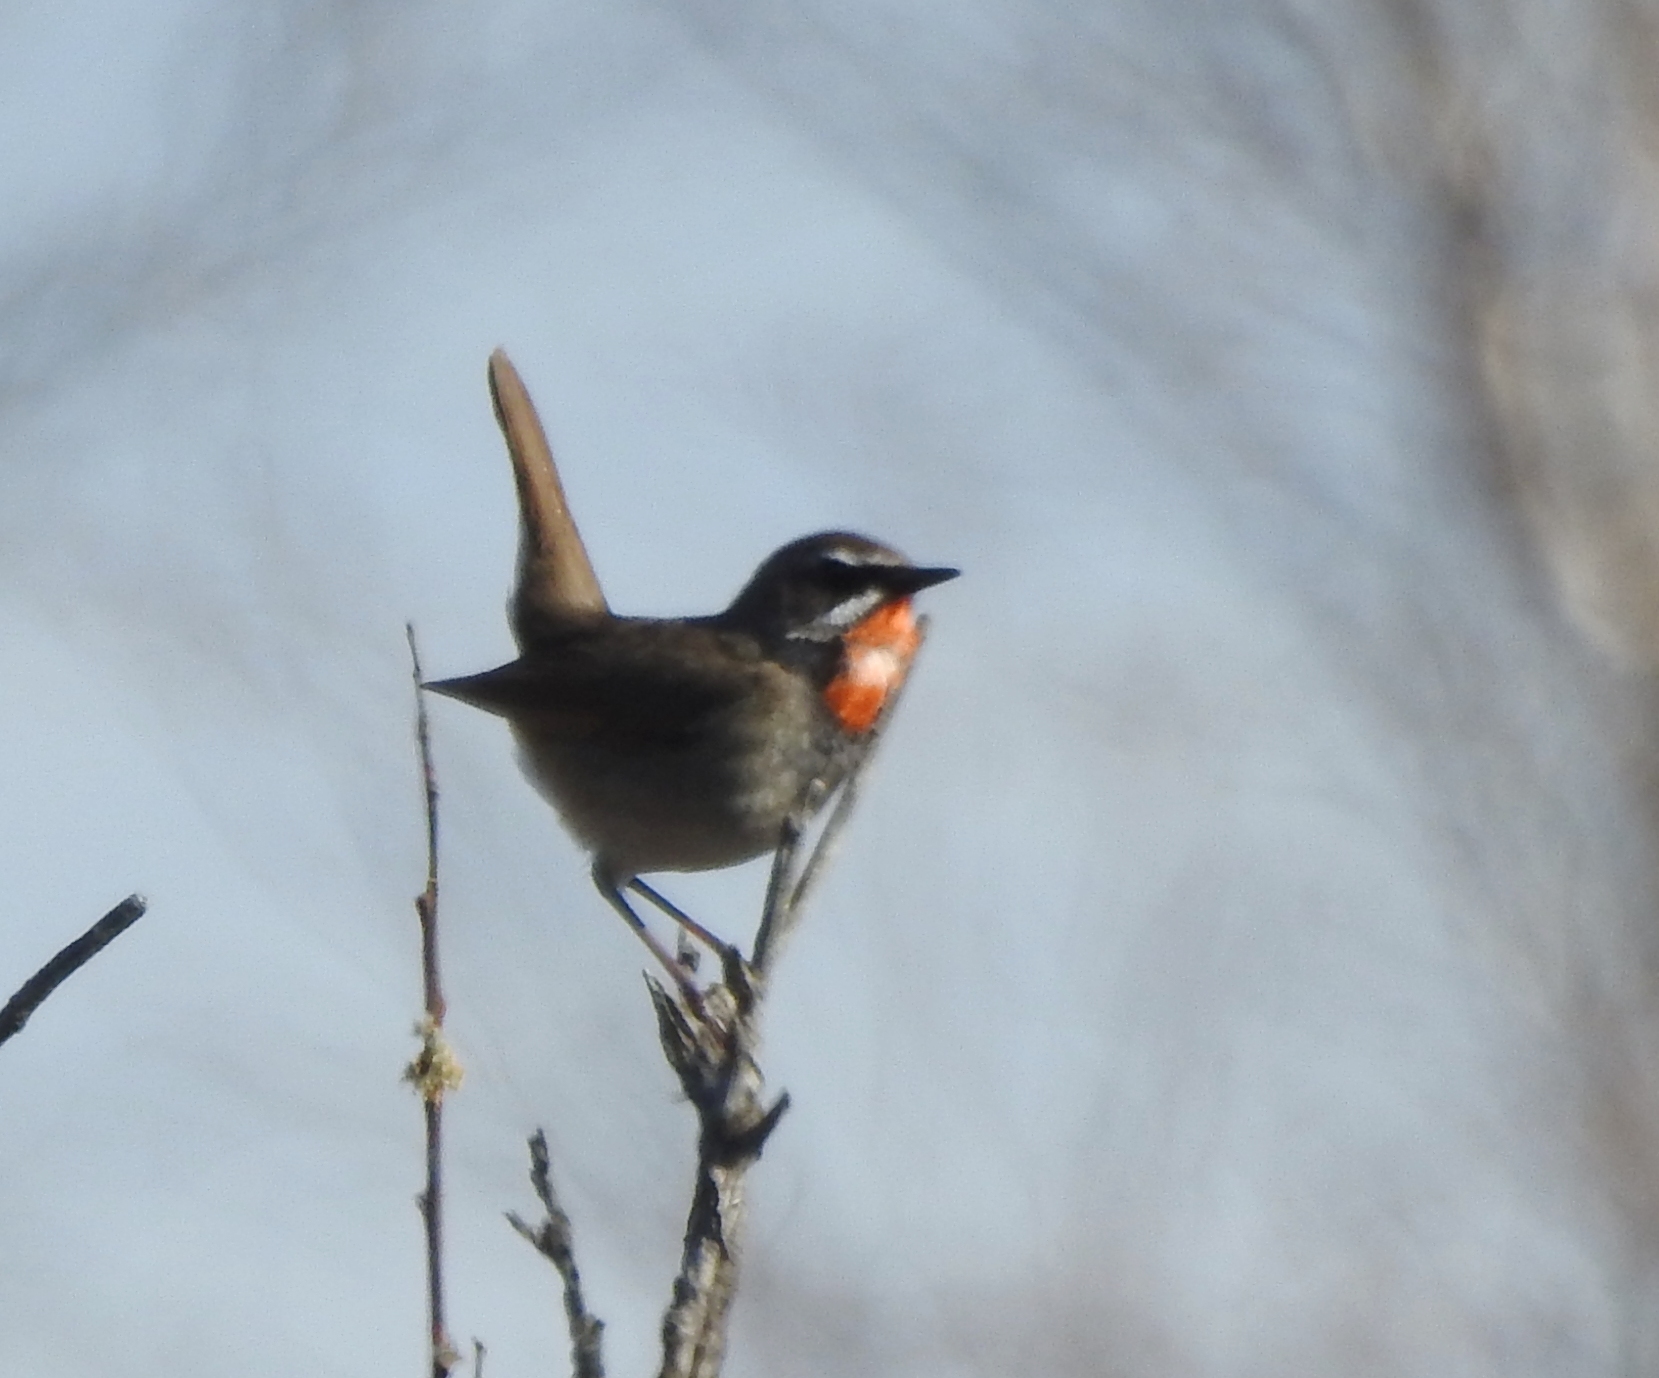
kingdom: Animalia
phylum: Chordata
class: Aves
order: Passeriformes
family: Muscicapidae
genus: Luscinia
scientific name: Luscinia calliope
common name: Siberian rubythroat
